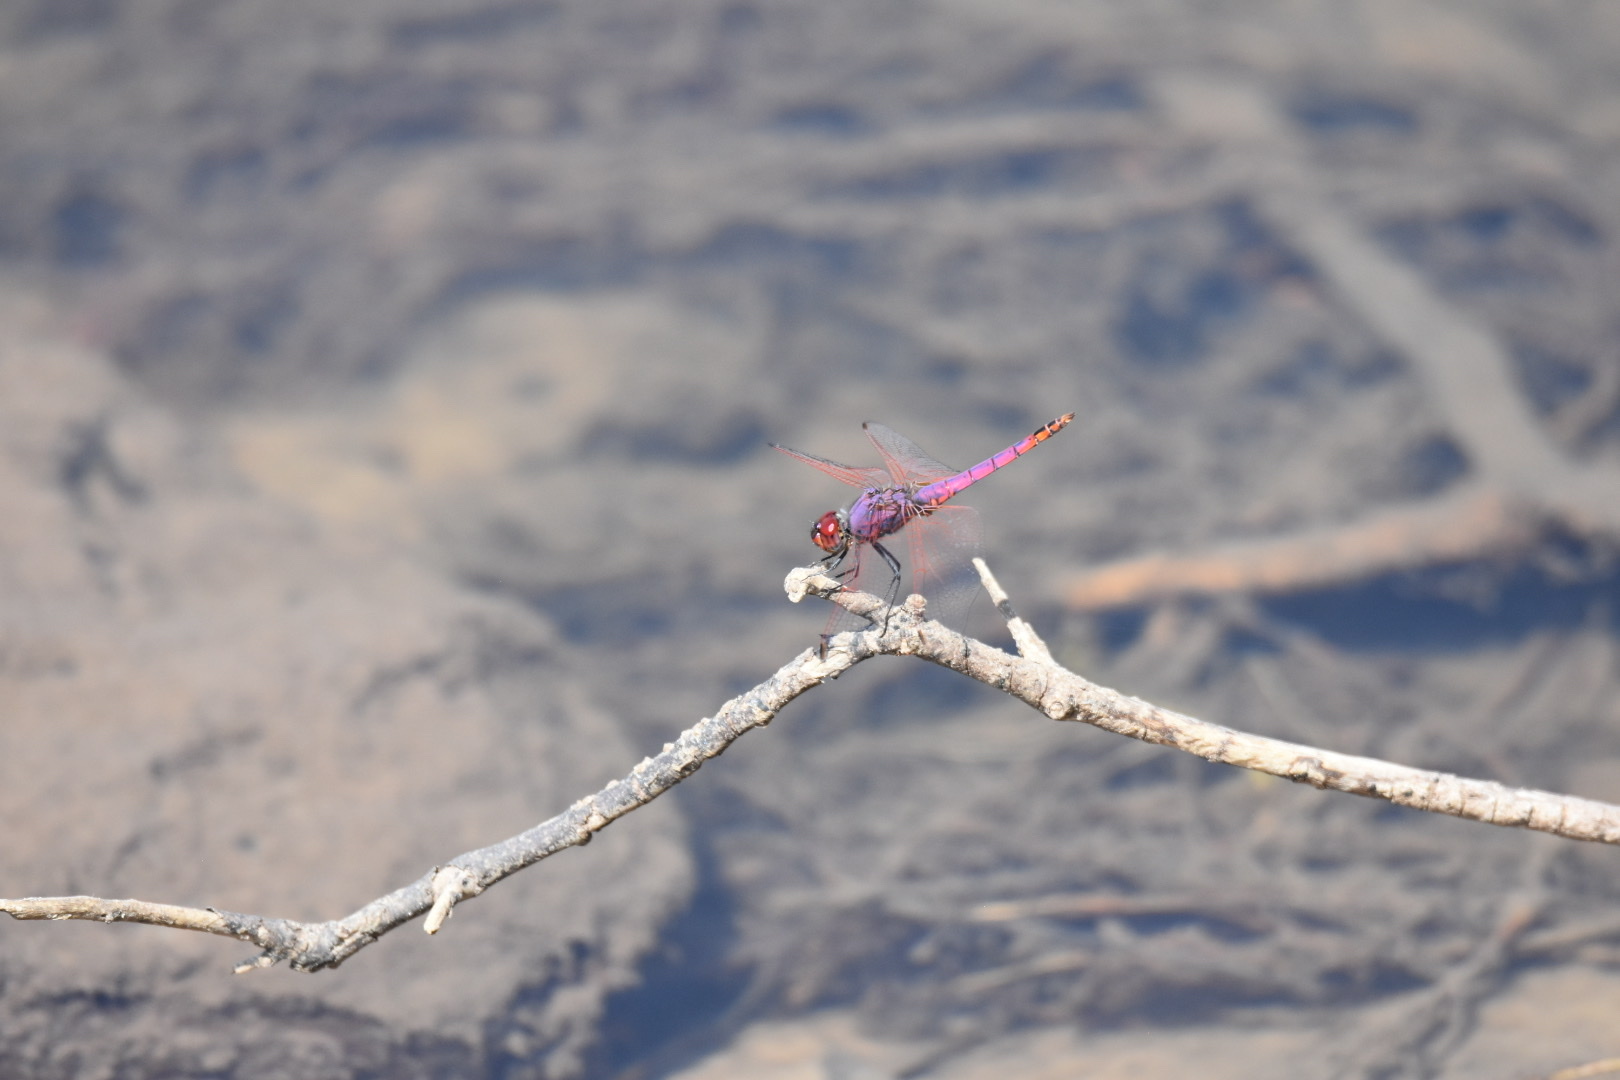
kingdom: Animalia
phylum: Arthropoda
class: Insecta
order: Odonata
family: Libellulidae
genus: Trithemis
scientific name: Trithemis annulata
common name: Violet dropwing
